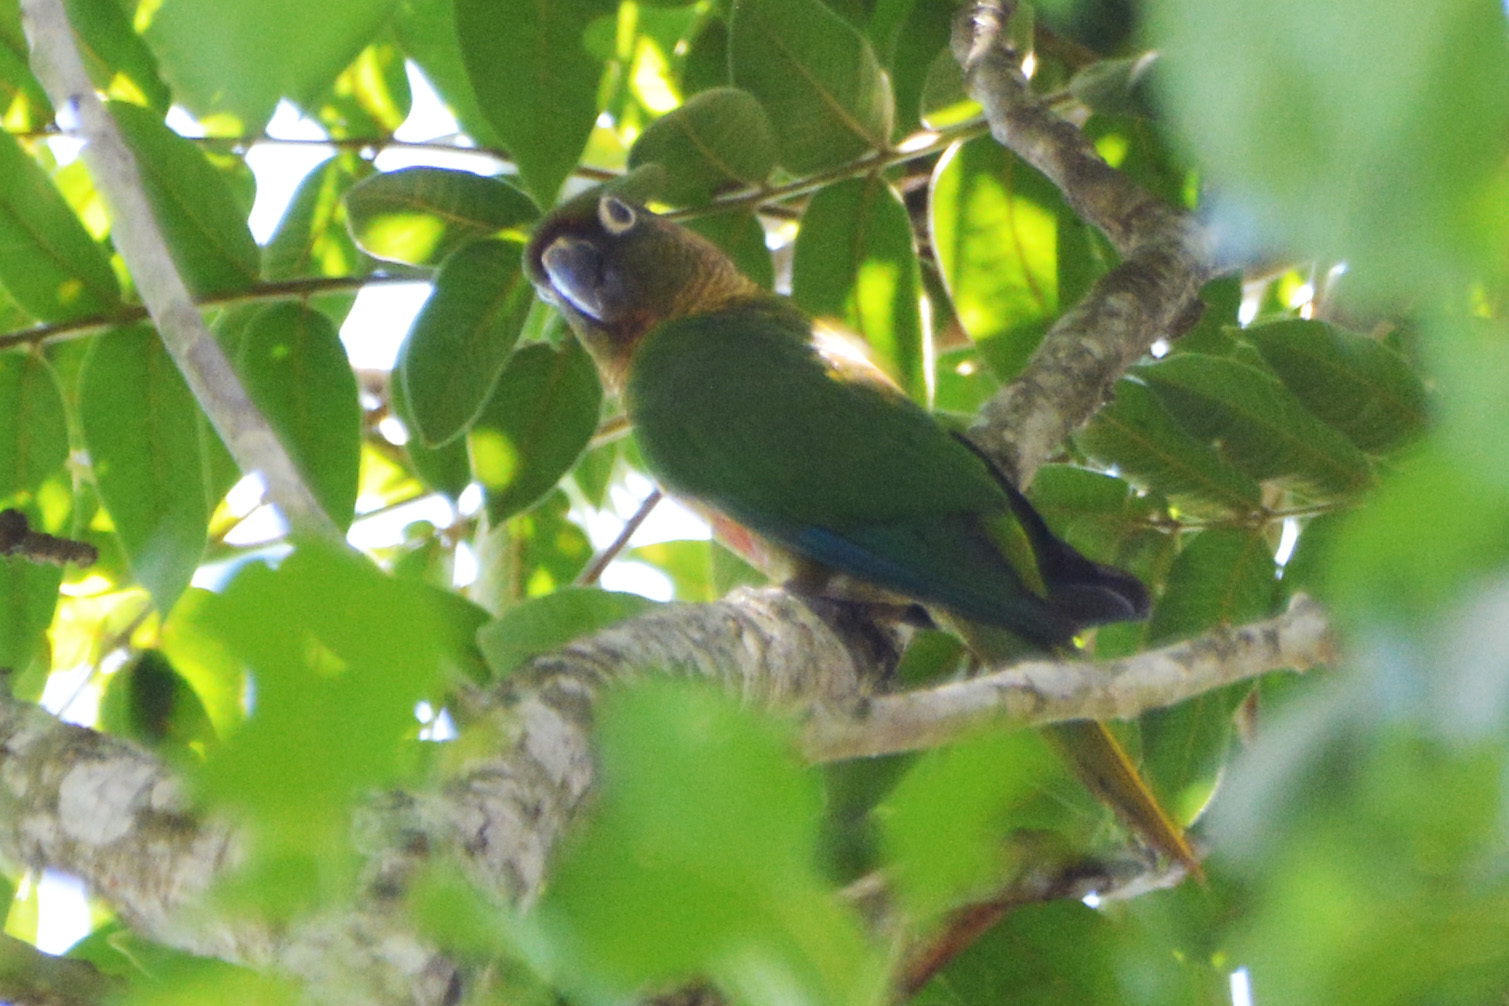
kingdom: Animalia
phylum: Chordata
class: Aves
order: Psittaciformes
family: Psittacidae
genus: Pyrrhura
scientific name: Pyrrhura frontalis
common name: Maroon-bellied parakeet
